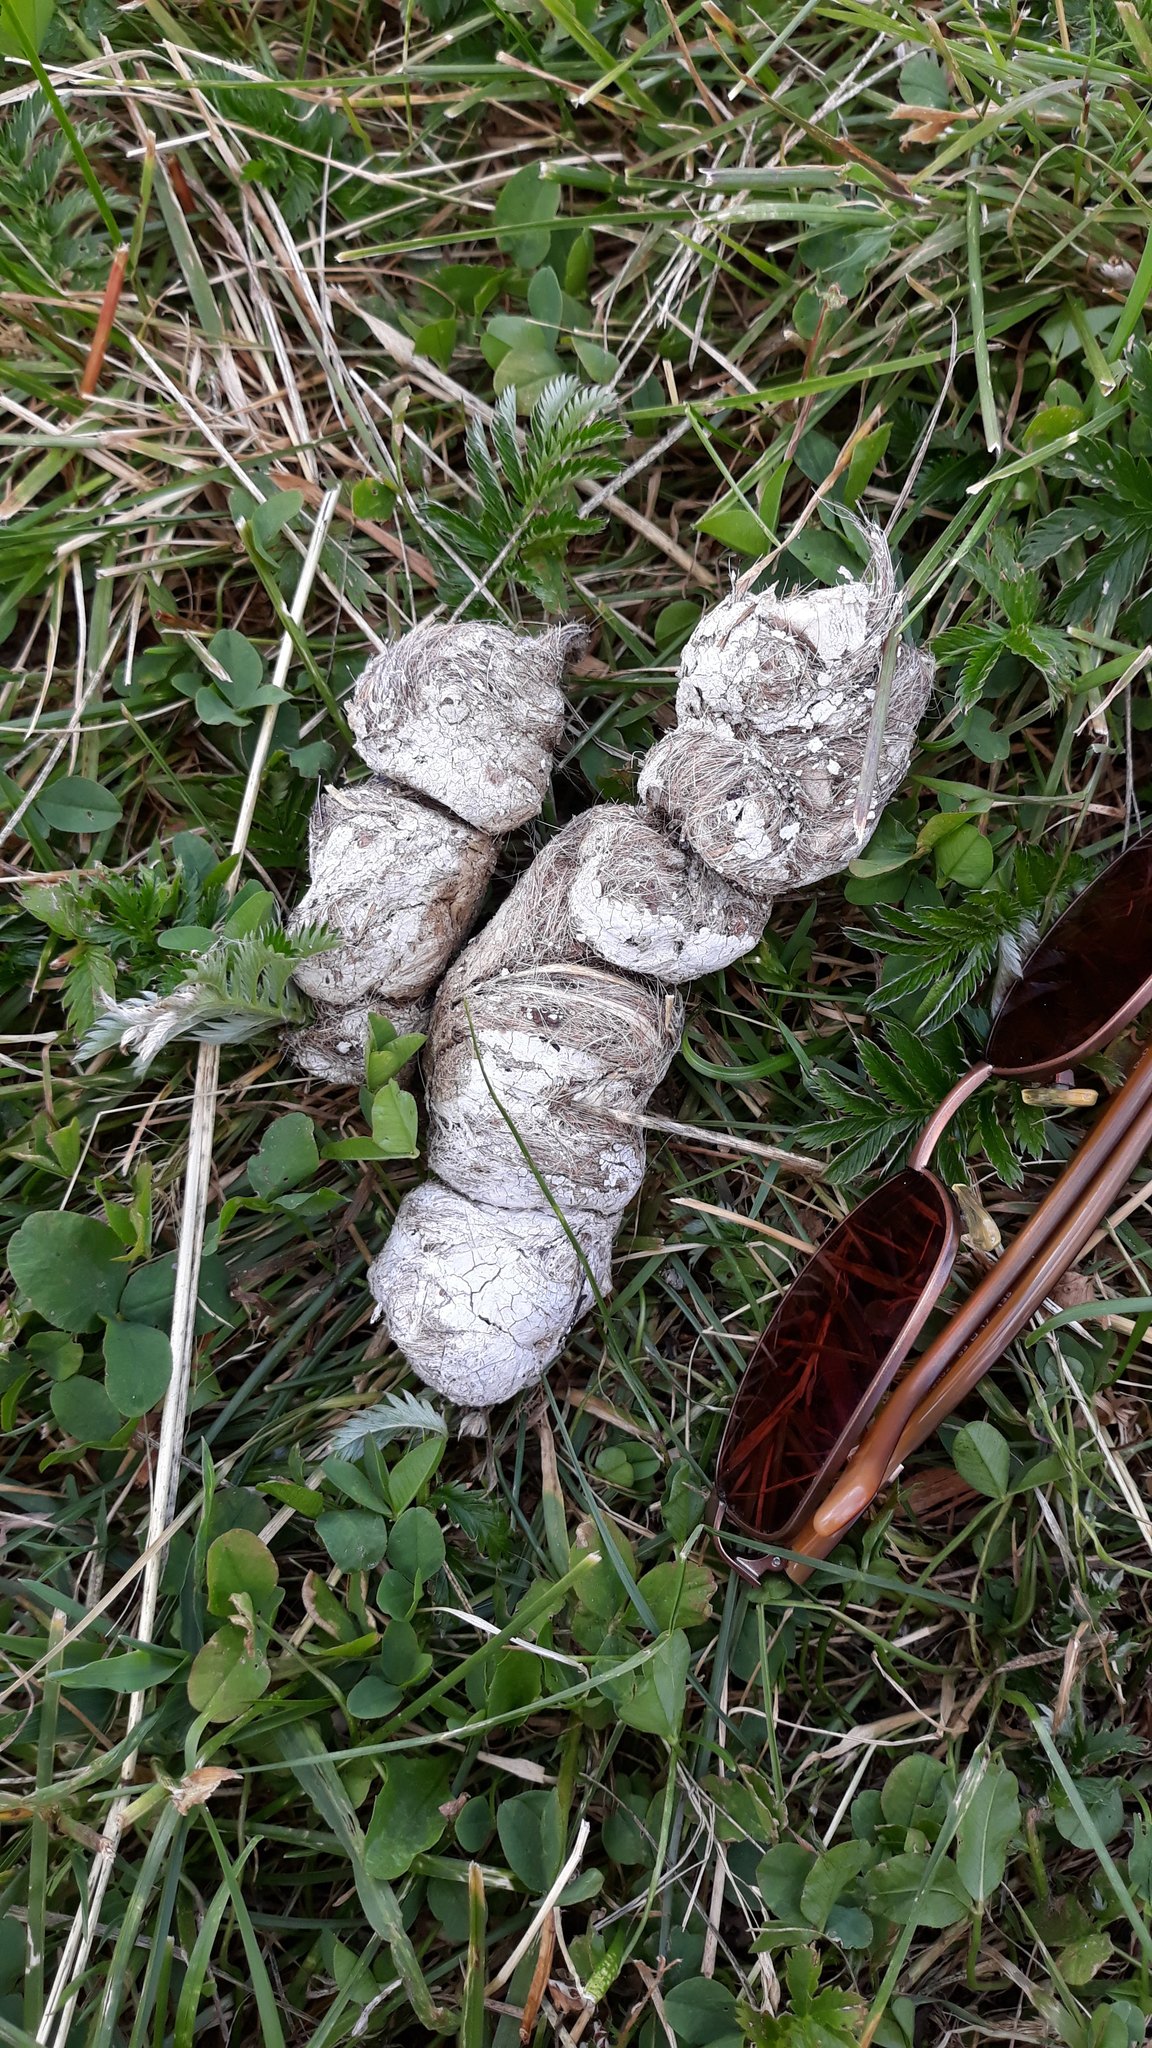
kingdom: Animalia
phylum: Chordata
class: Mammalia
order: Carnivora
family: Canidae
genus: Canis
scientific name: Canis lupus
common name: Gray wolf
